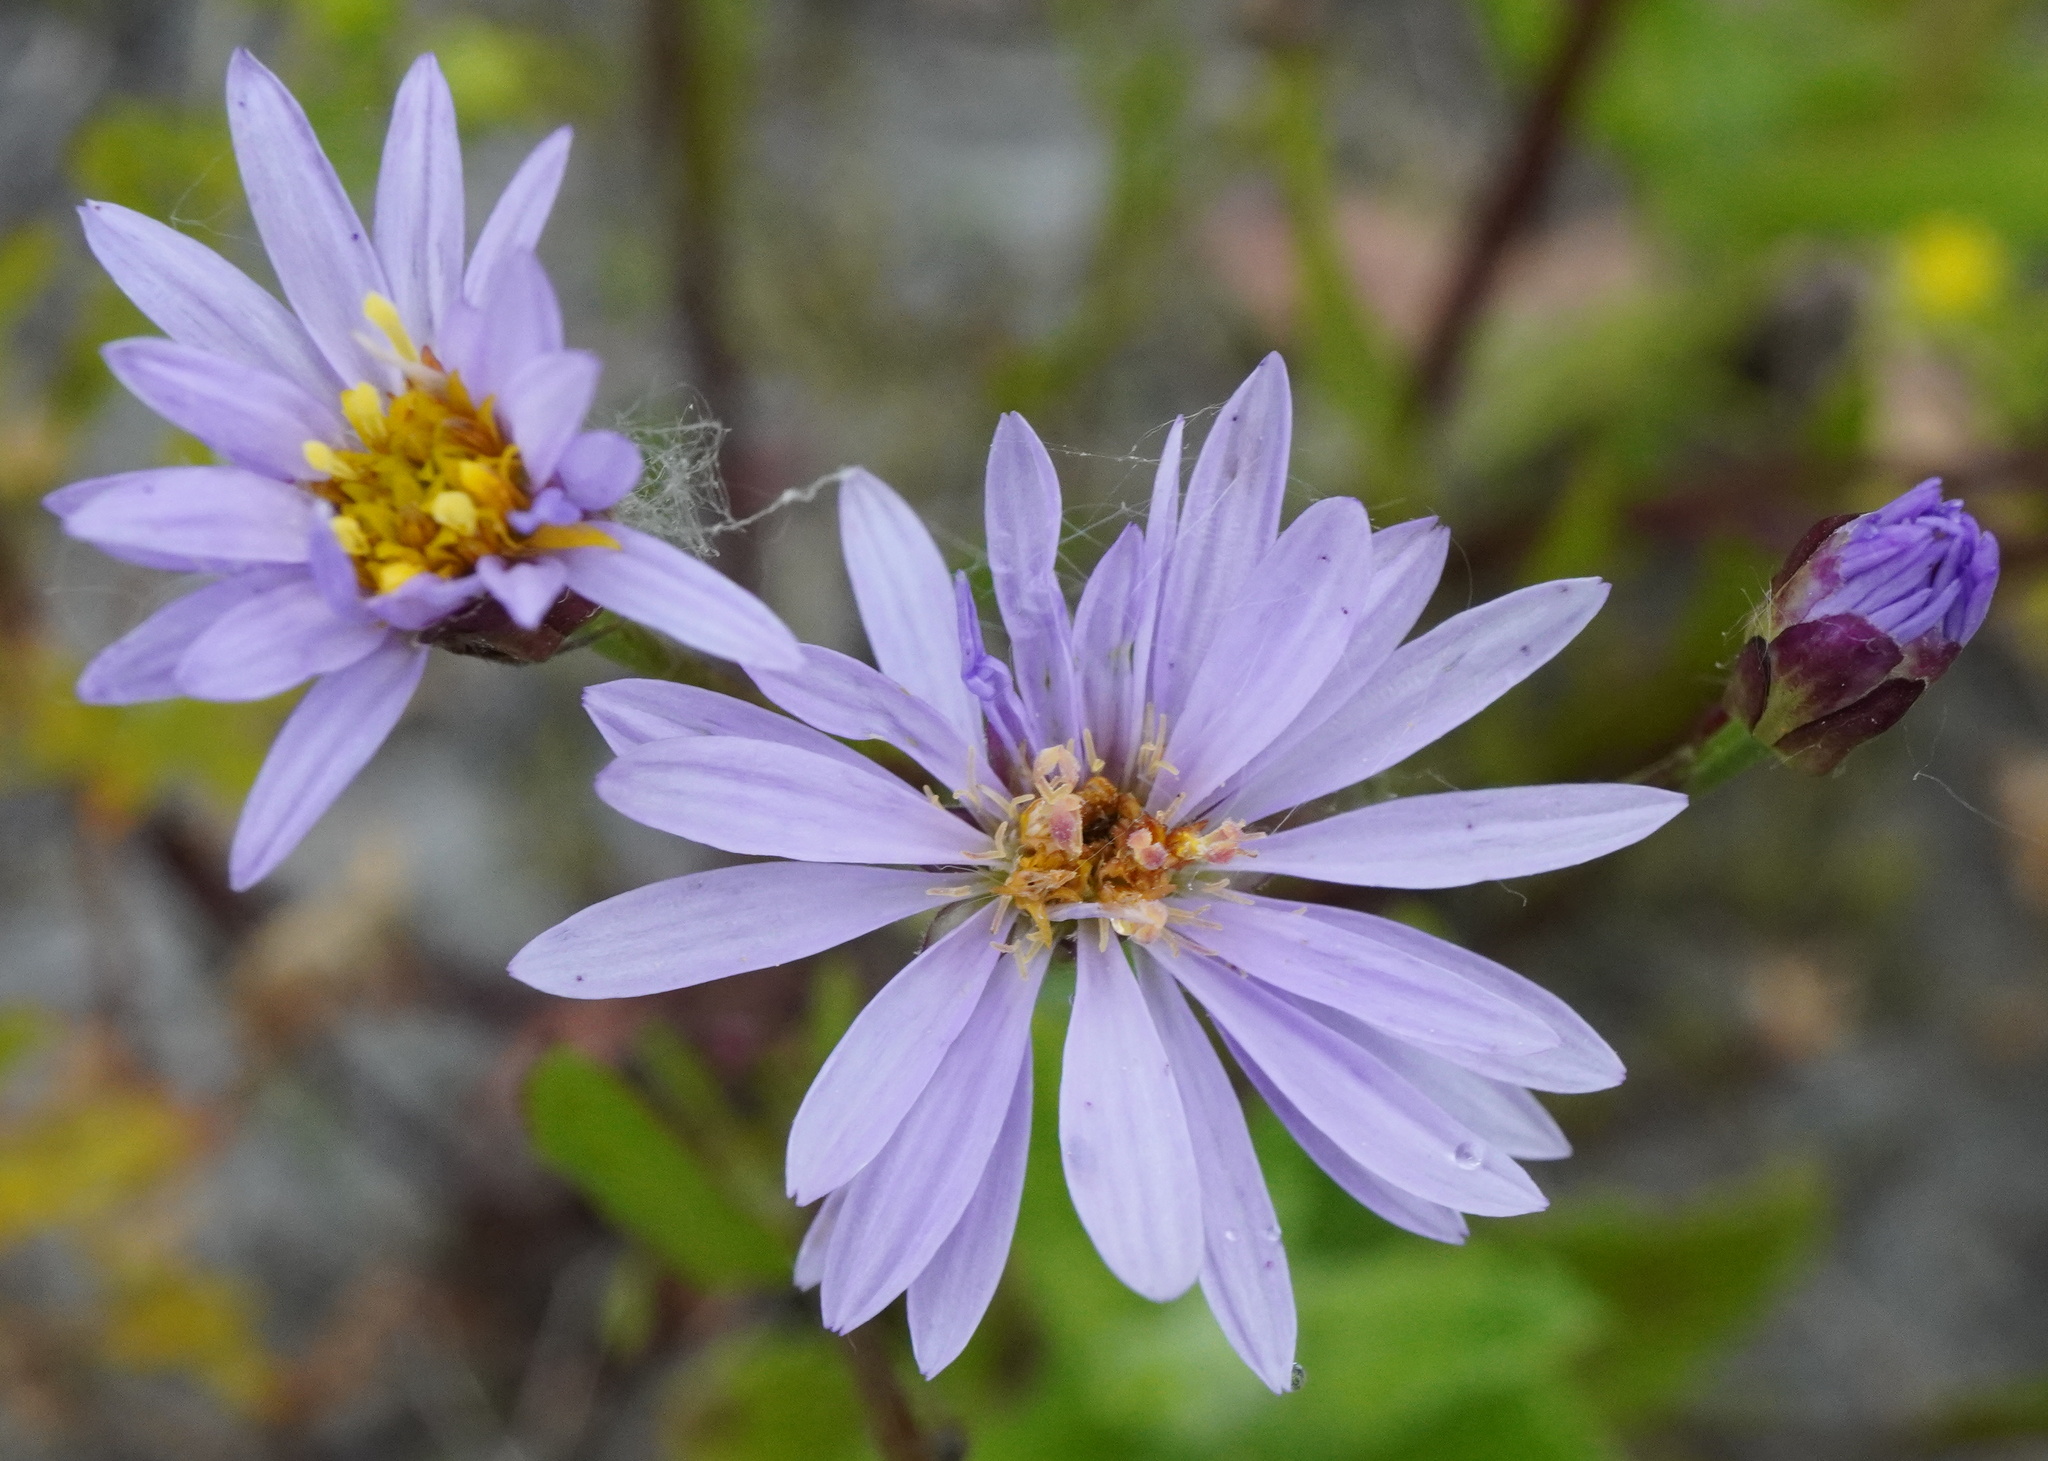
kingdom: Plantae
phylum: Tracheophyta
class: Magnoliopsida
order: Asterales
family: Asteraceae
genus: Tripolium
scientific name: Tripolium pannonicum
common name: Sea aster
